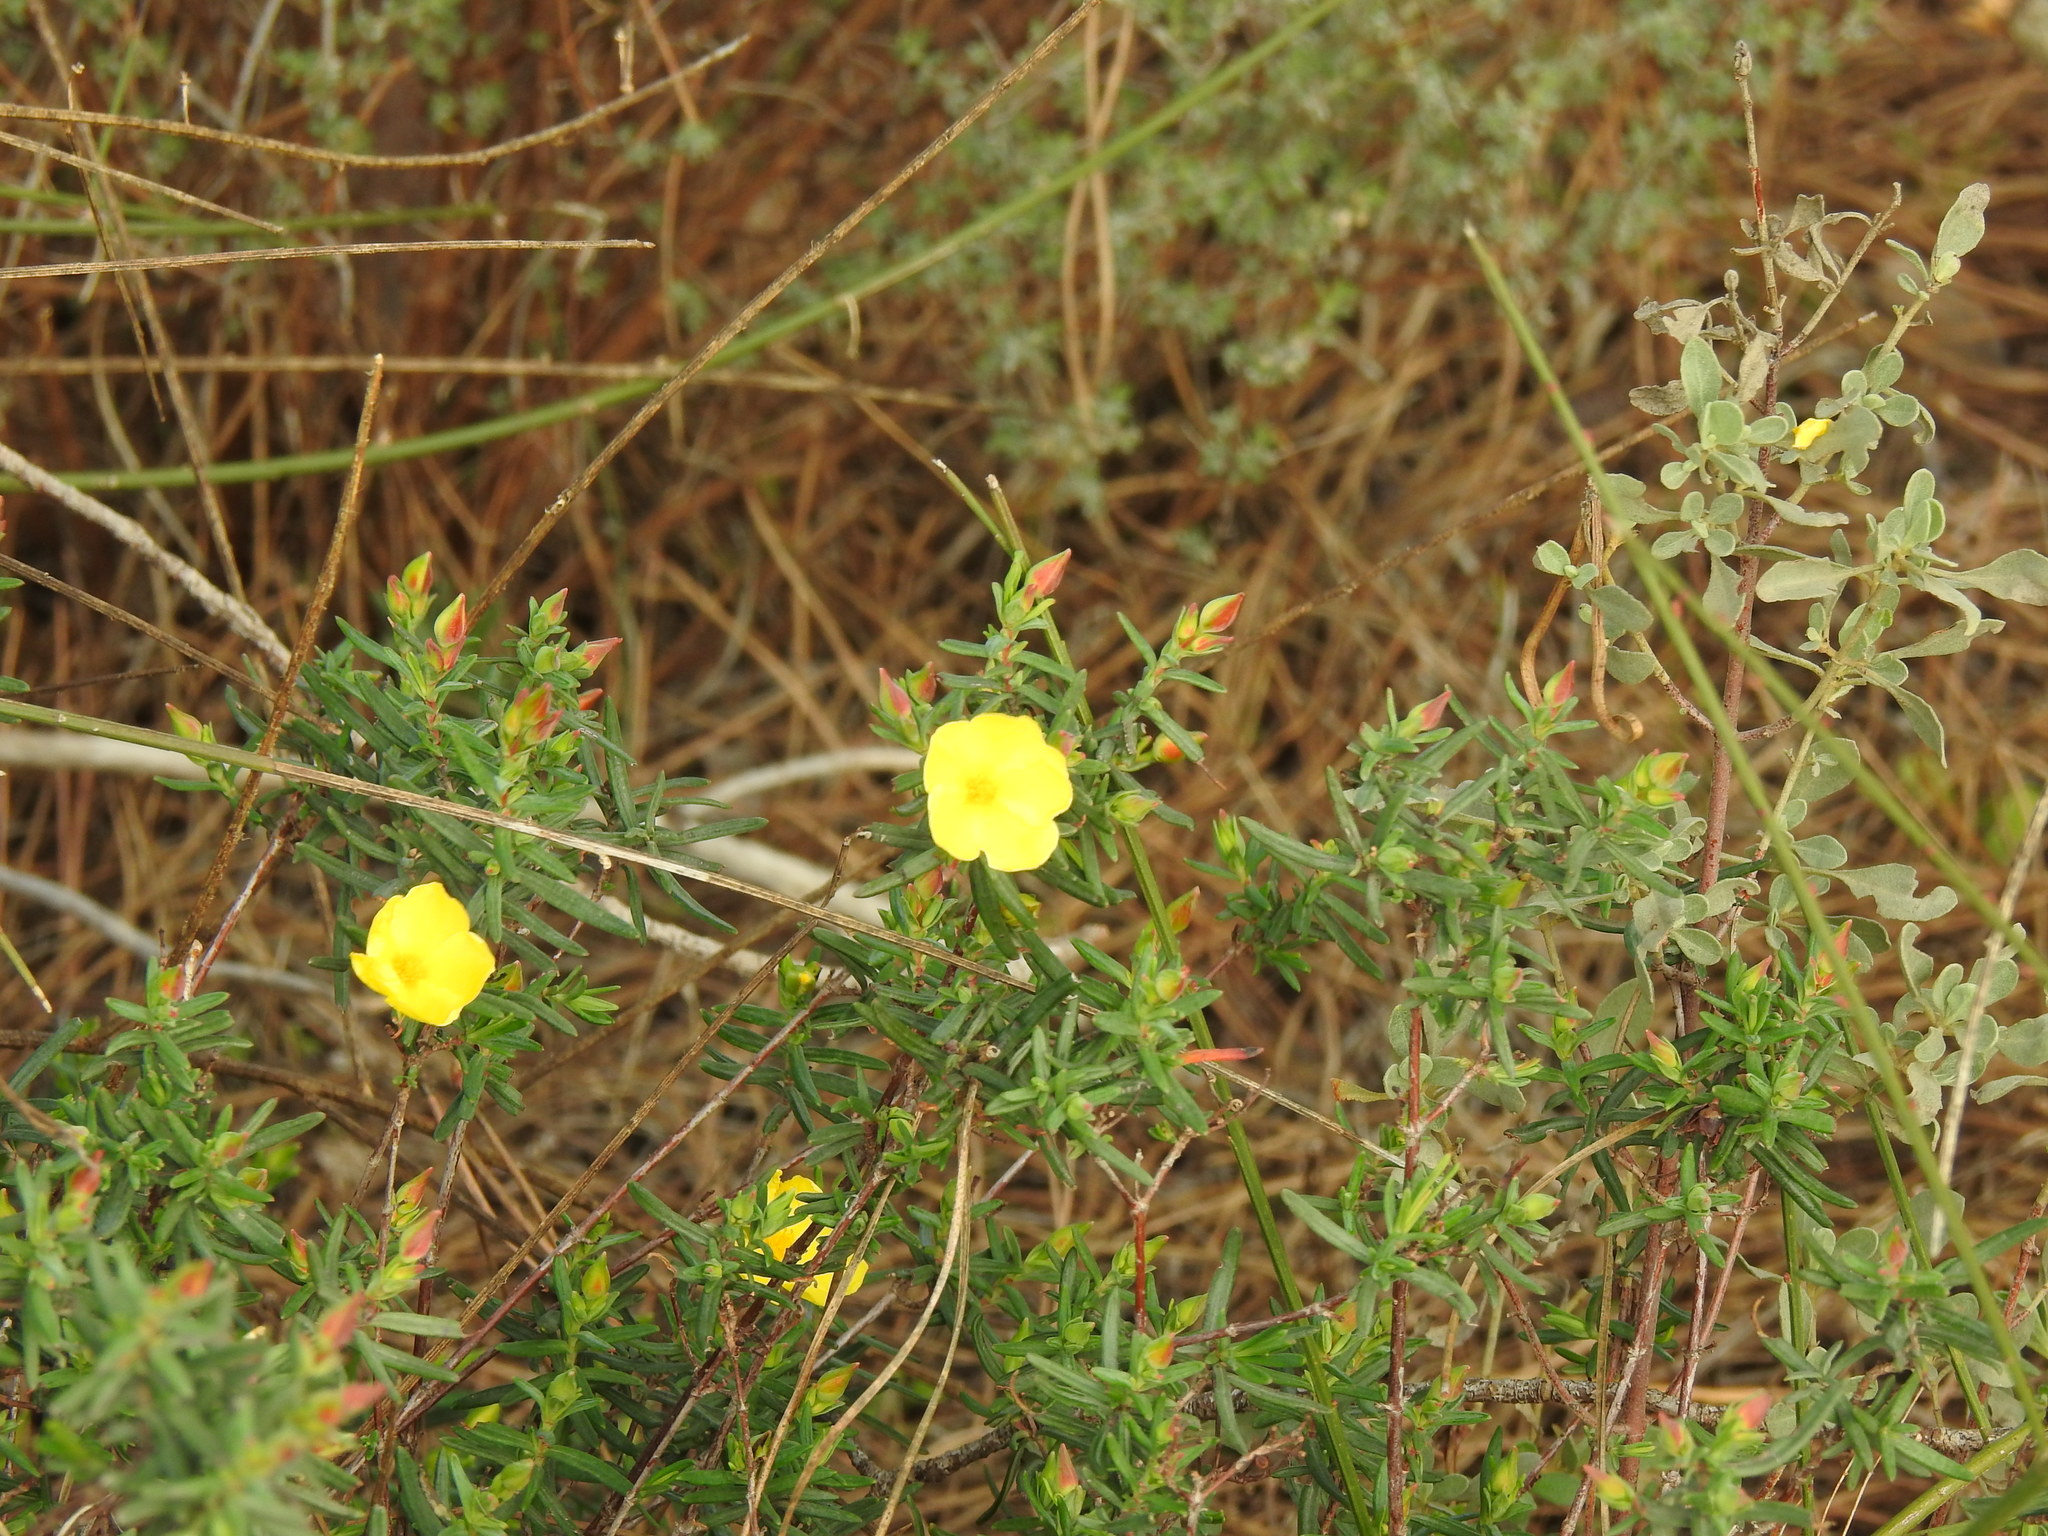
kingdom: Plantae
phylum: Tracheophyta
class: Magnoliopsida
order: Malvales
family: Cistaceae
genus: Halimium
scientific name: Halimium calycinum
